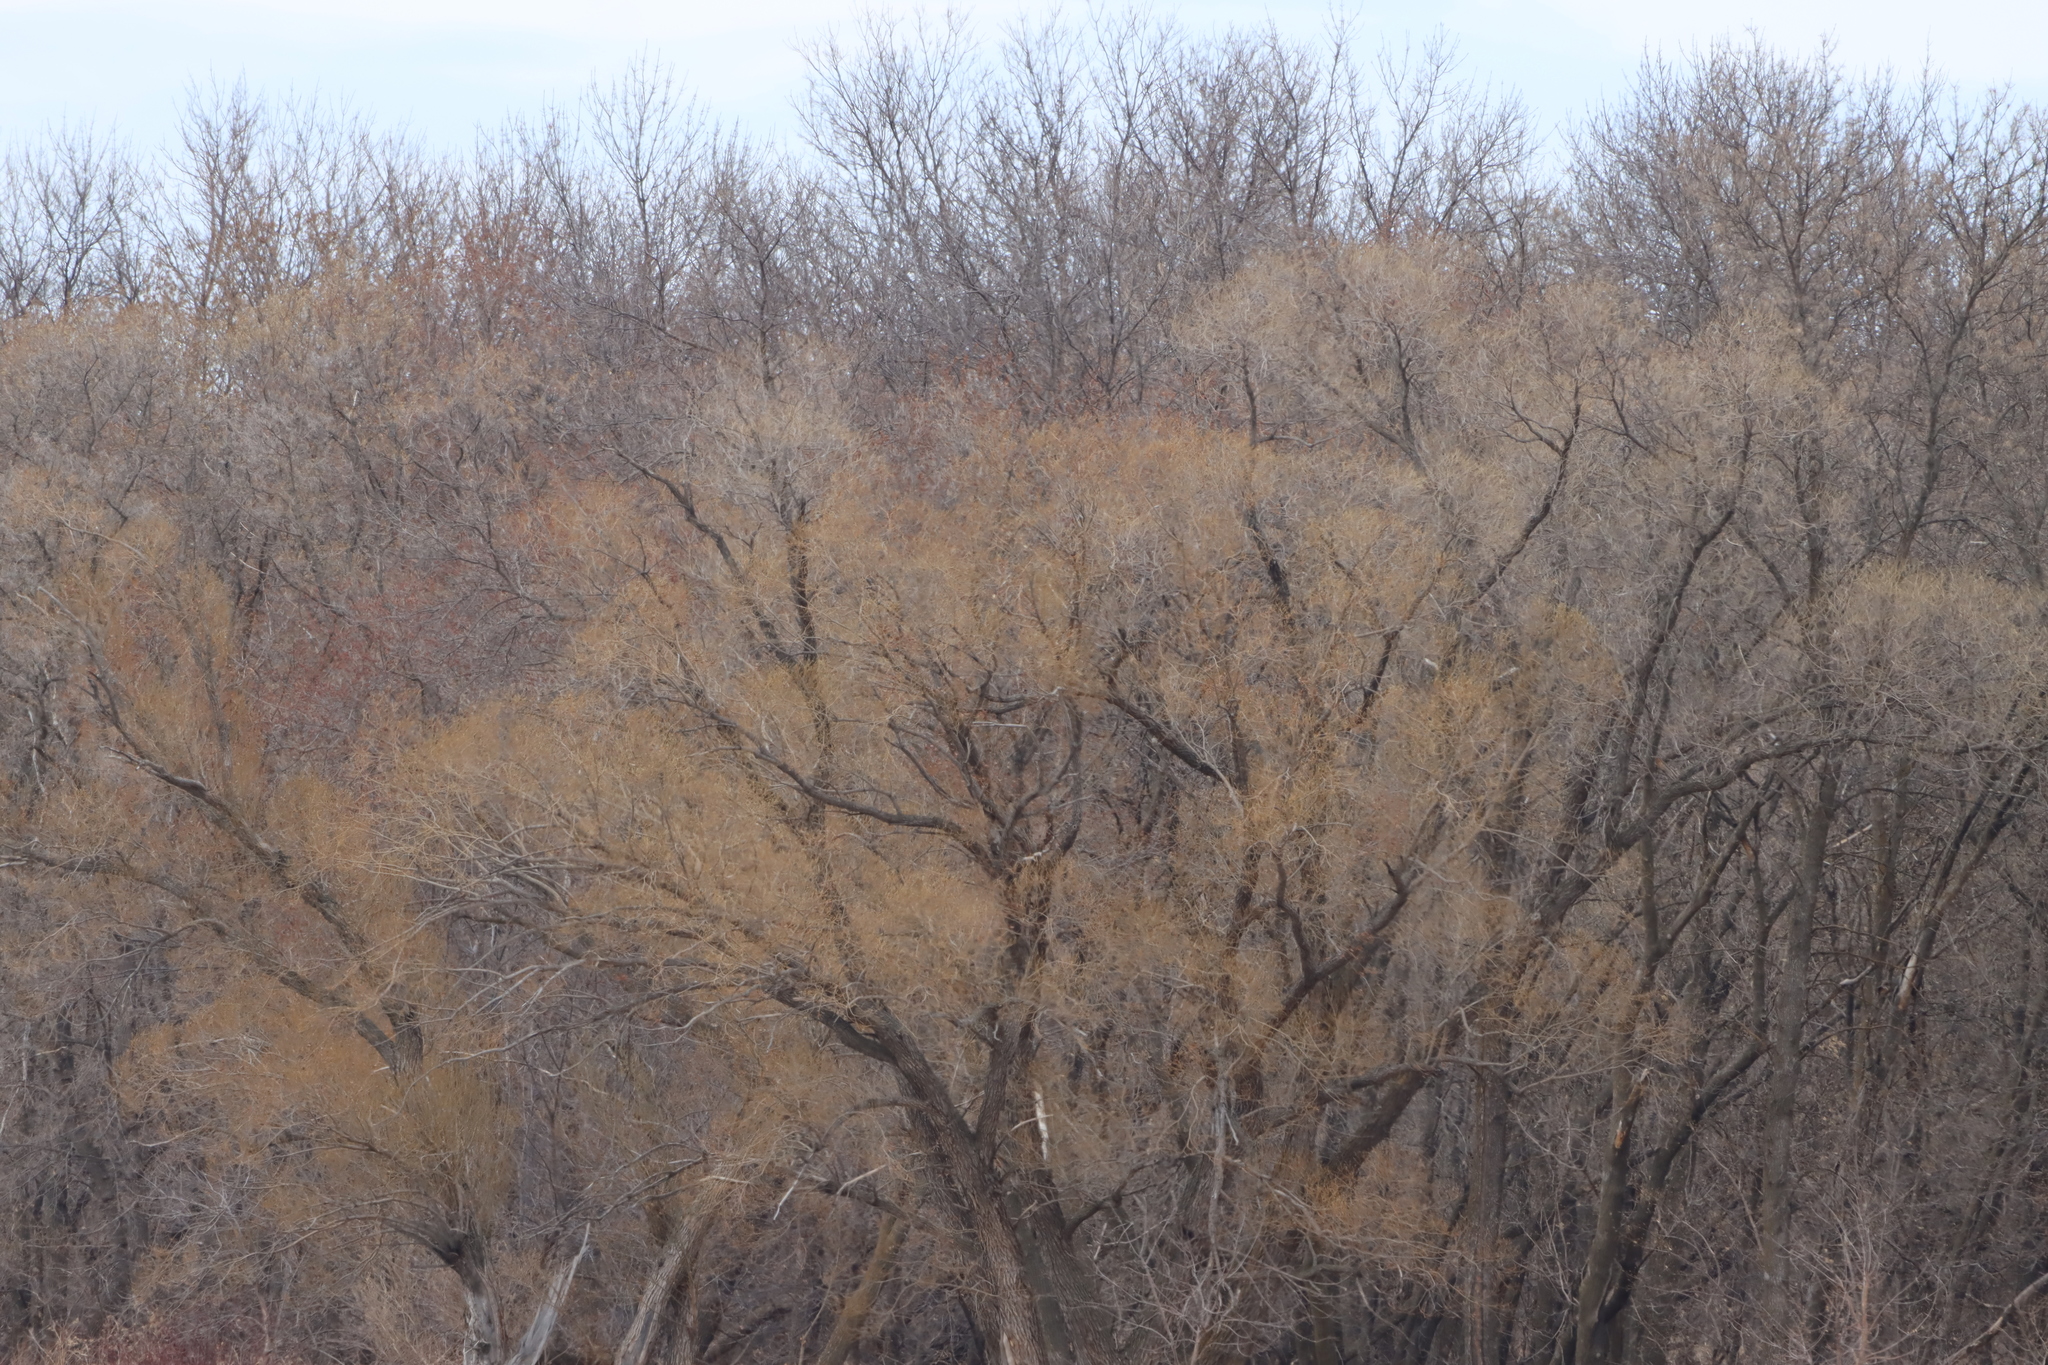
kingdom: Plantae
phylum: Tracheophyta
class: Magnoliopsida
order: Malpighiales
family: Salicaceae
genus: Salix
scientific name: Salix fragilis
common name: Crack willow
